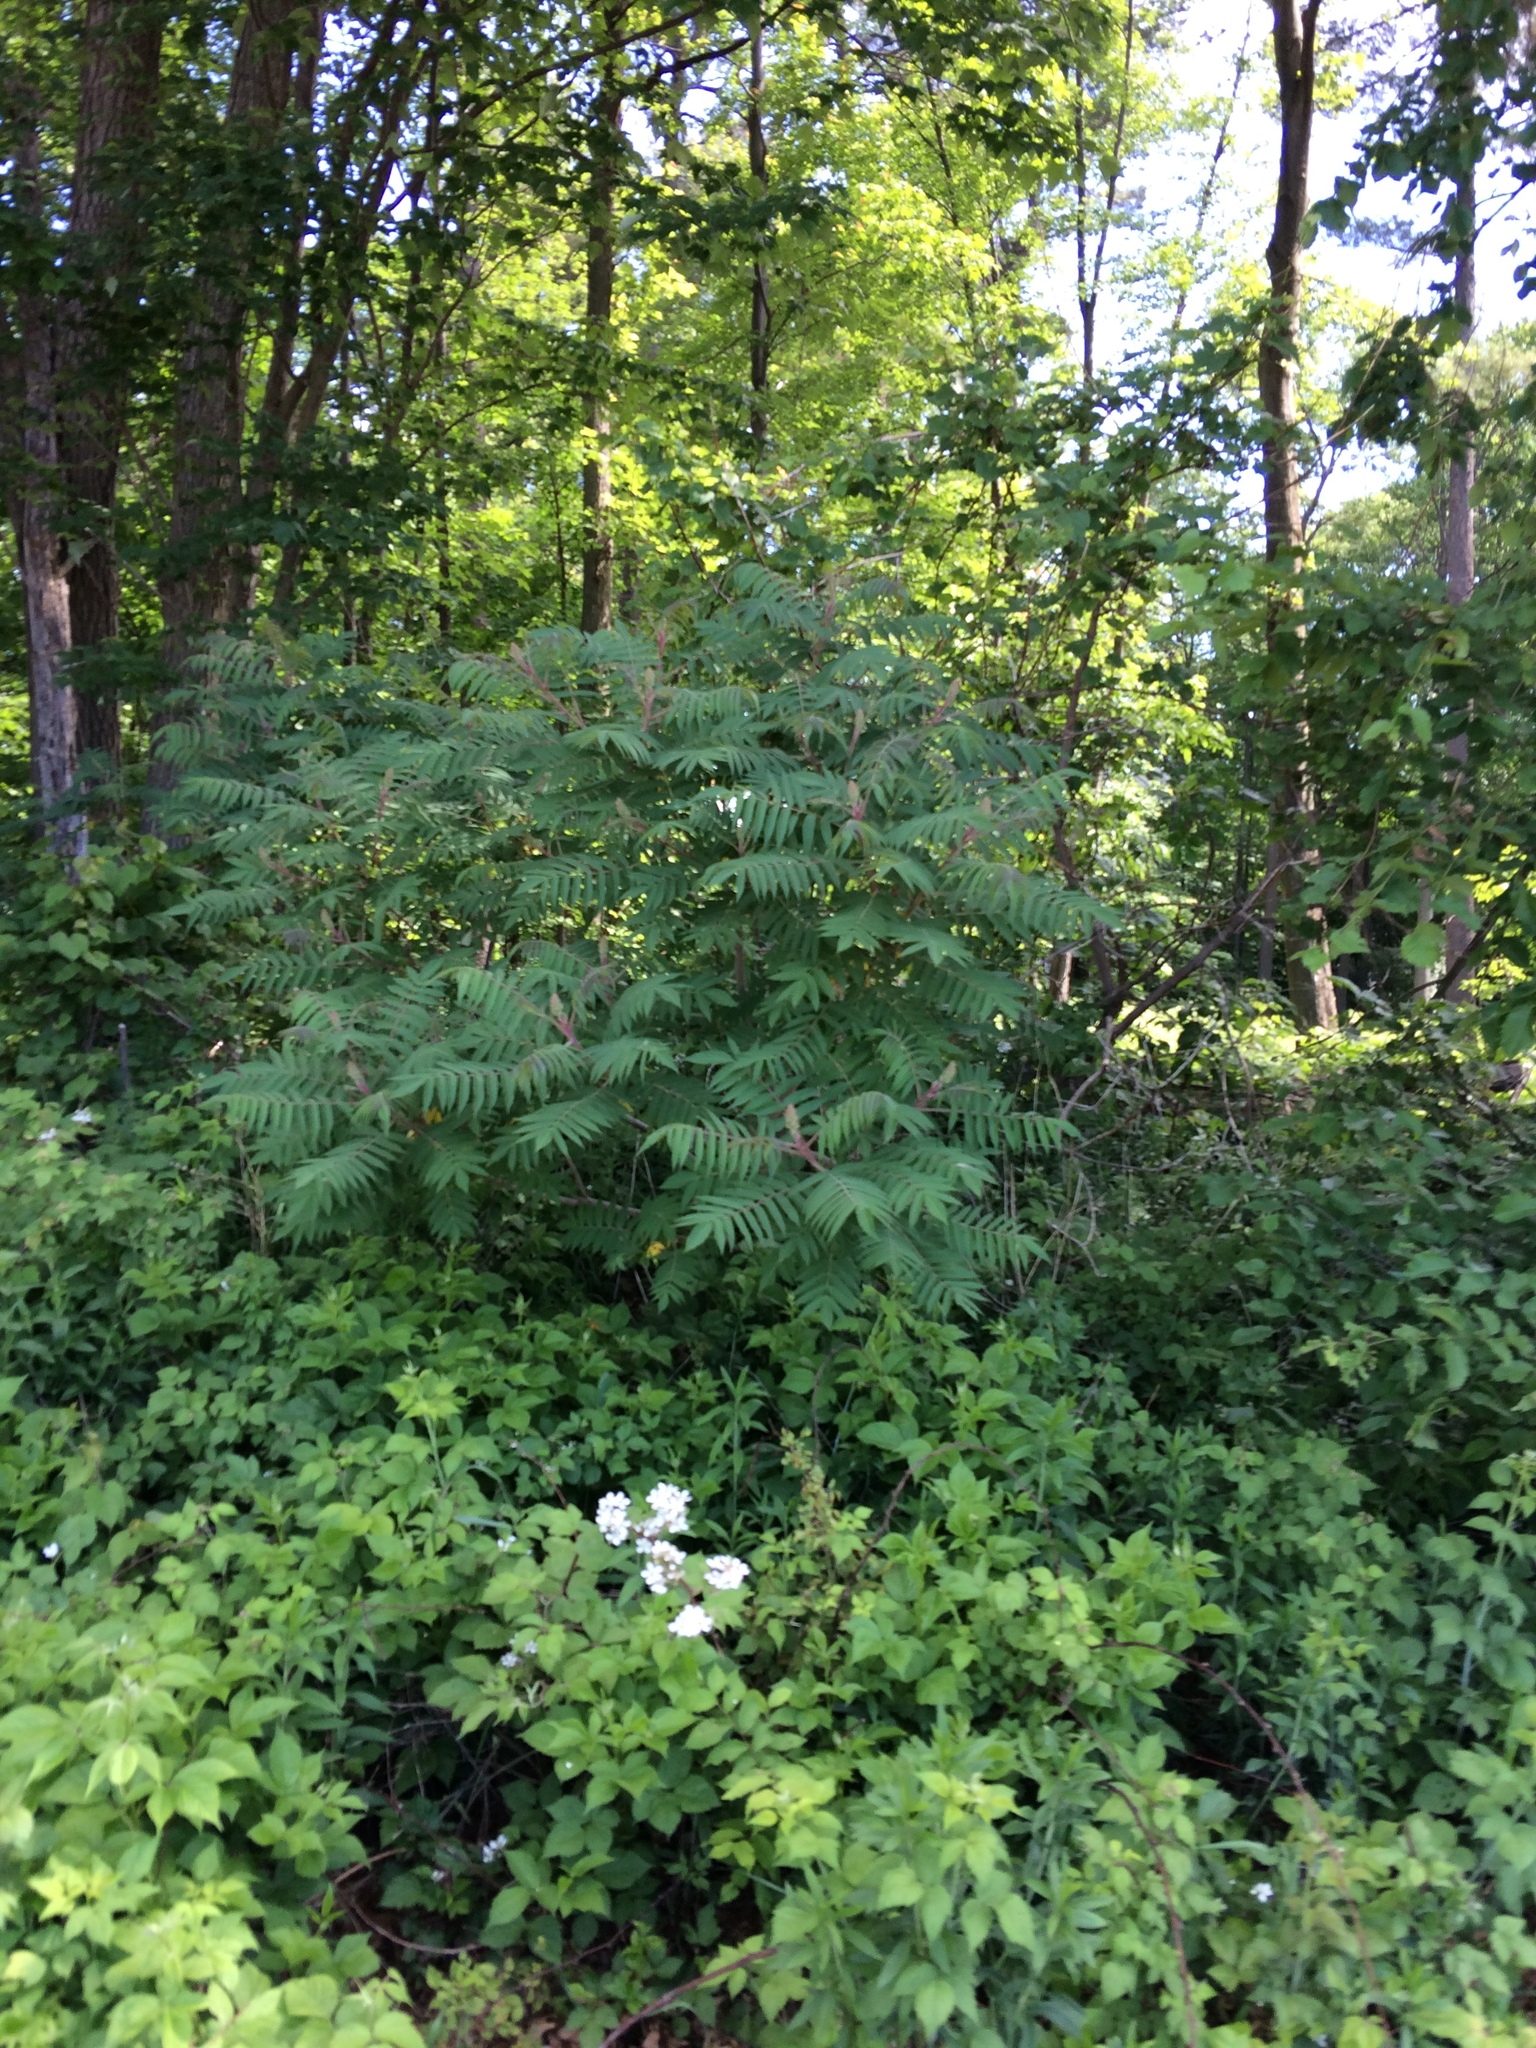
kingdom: Plantae
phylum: Tracheophyta
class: Magnoliopsida
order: Sapindales
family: Anacardiaceae
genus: Rhus
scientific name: Rhus typhina
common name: Staghorn sumac
